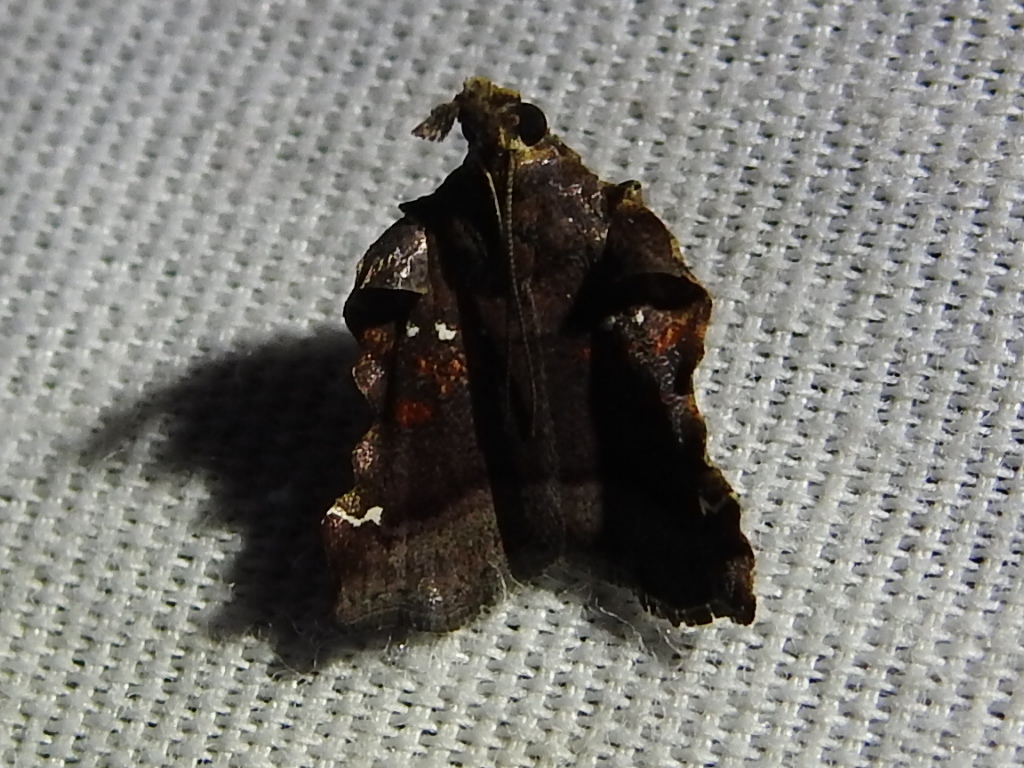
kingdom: Animalia
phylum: Arthropoda
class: Insecta
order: Lepidoptera
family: Pyralidae
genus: Clydonopteron
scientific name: Clydonopteron sacculana
